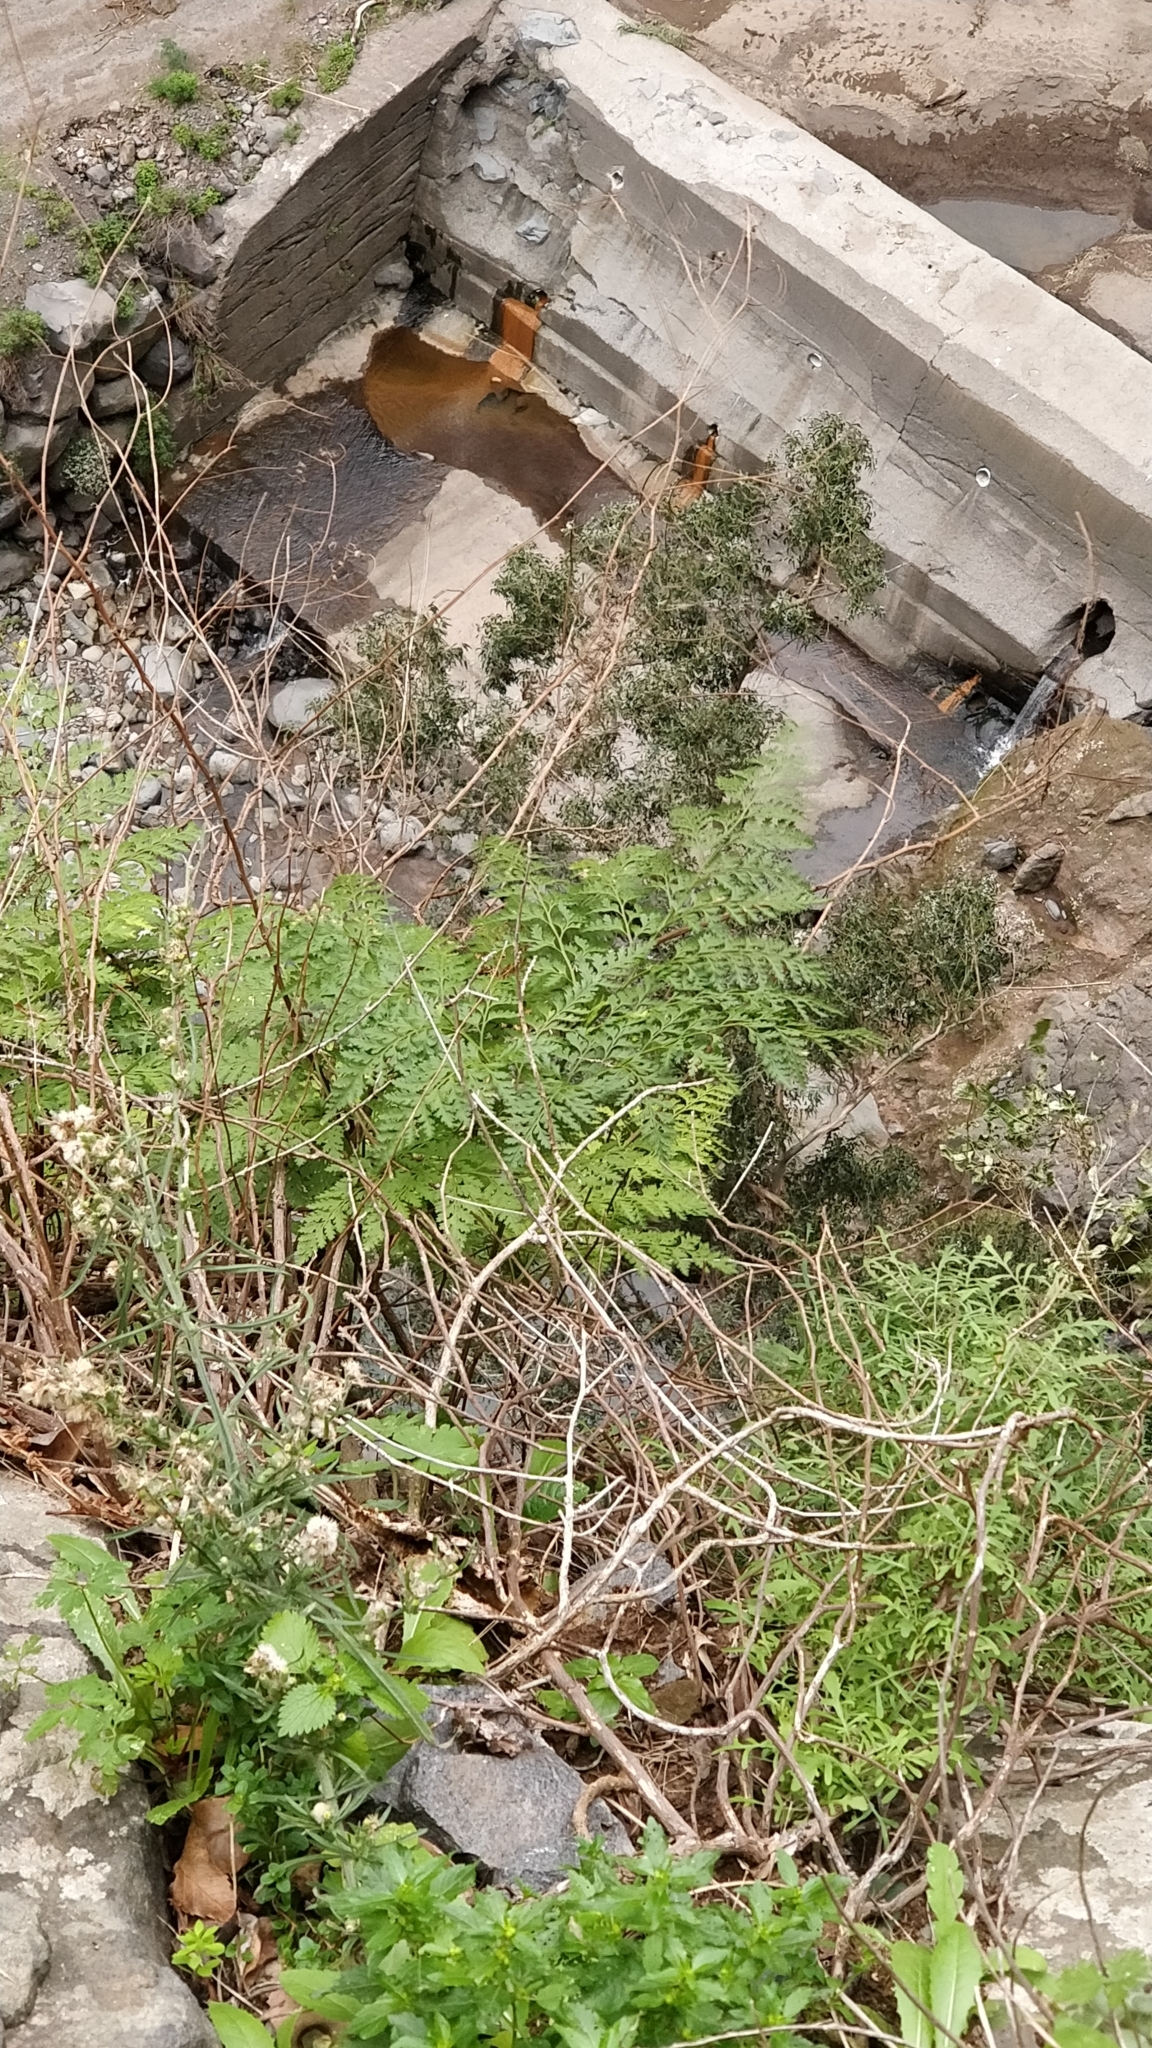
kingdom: Plantae
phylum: Tracheophyta
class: Polypodiopsida
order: Polypodiales
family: Davalliaceae
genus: Davallia
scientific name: Davallia canariensis
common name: Hare's-foot fern
